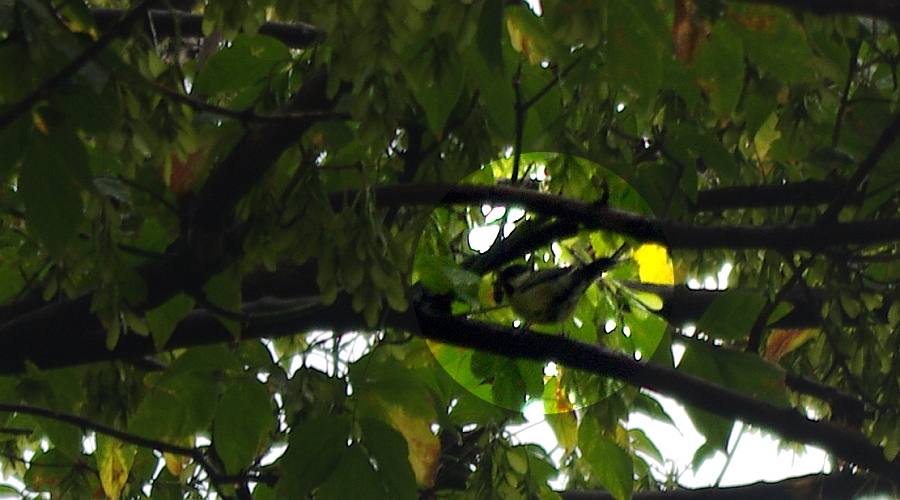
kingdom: Animalia
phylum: Chordata
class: Aves
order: Passeriformes
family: Paridae
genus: Parus
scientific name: Parus major
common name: Great tit
